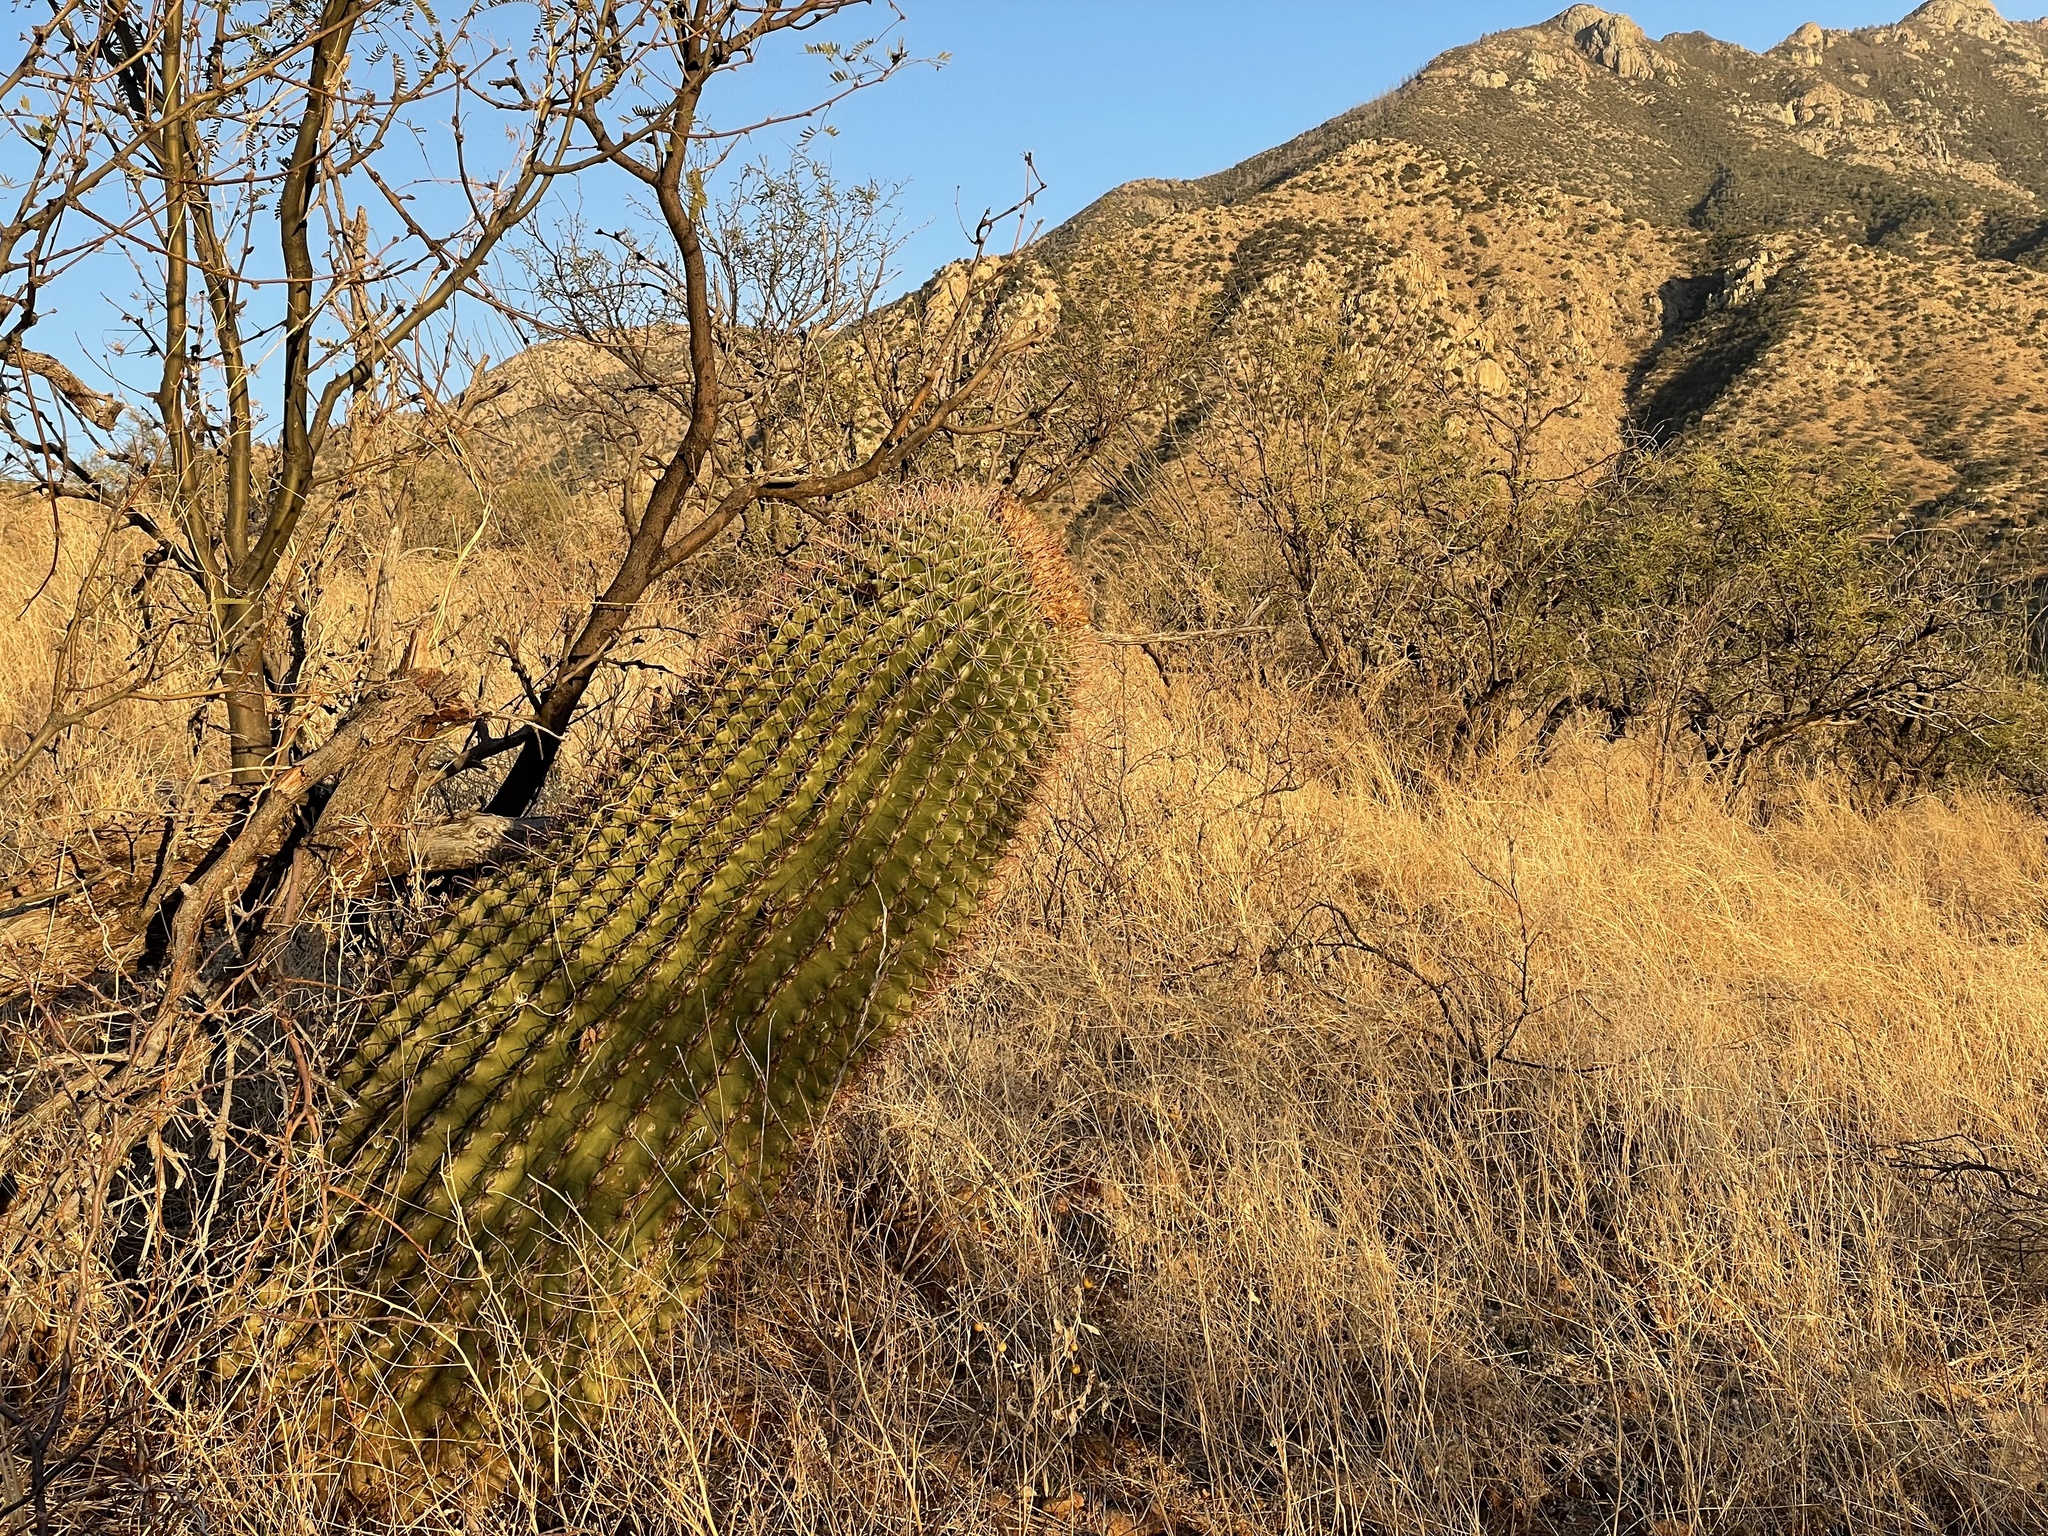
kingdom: Plantae
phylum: Tracheophyta
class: Magnoliopsida
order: Caryophyllales
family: Cactaceae
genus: Ferocactus
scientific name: Ferocactus wislizeni
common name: Candy barrel cactus
